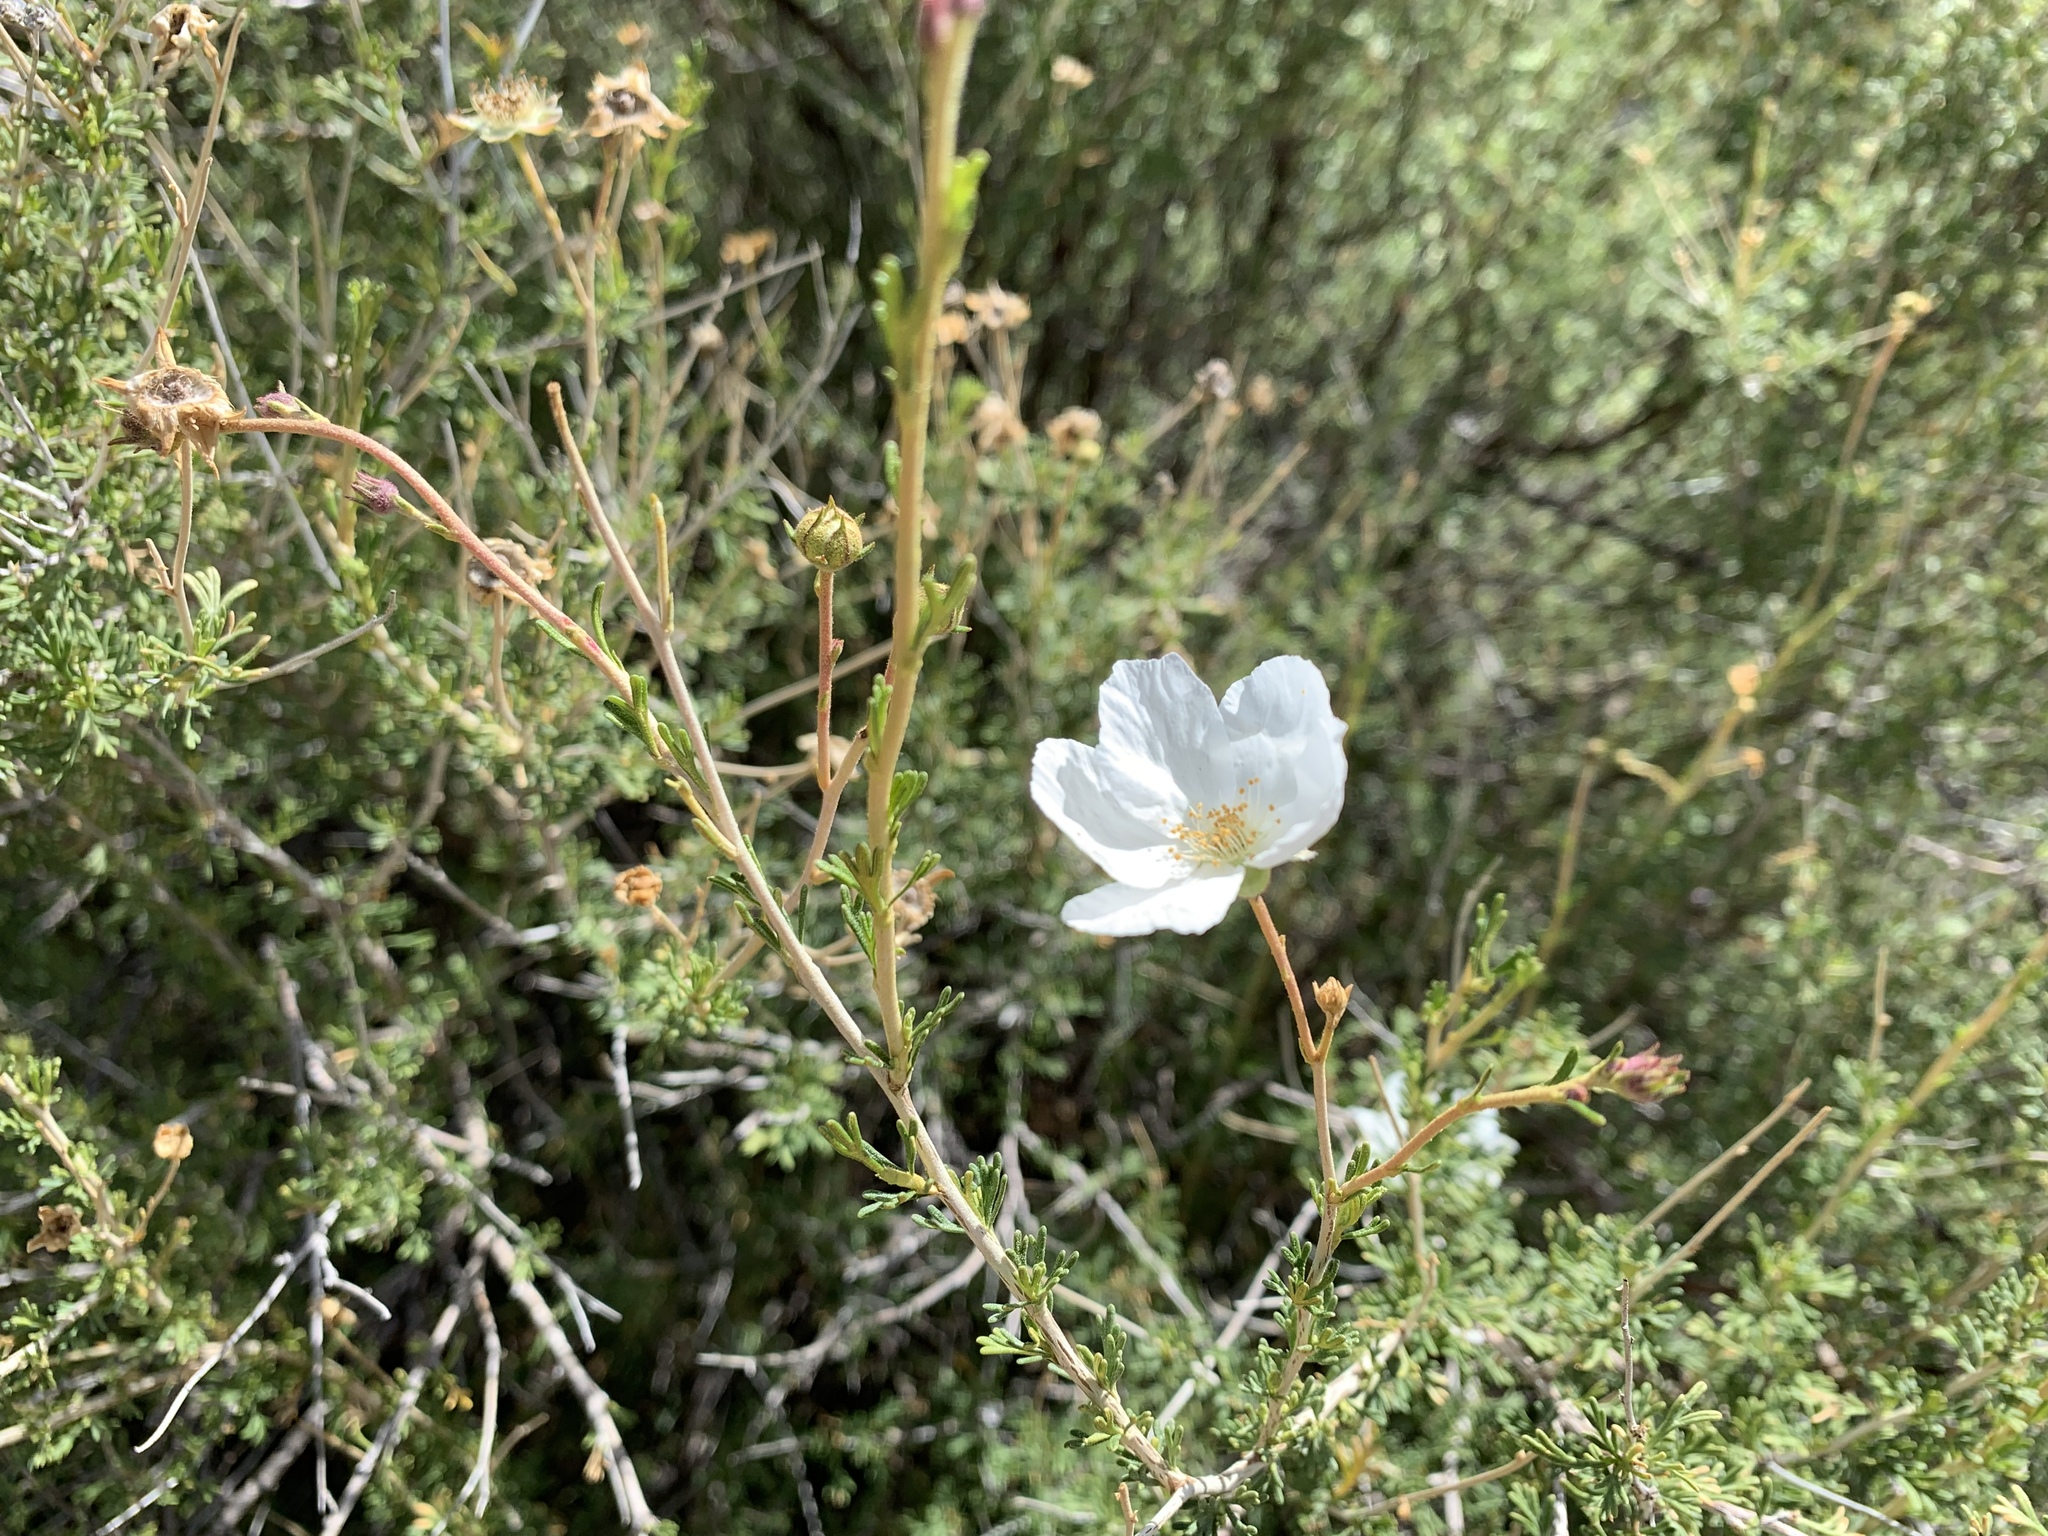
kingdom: Plantae
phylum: Tracheophyta
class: Magnoliopsida
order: Rosales
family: Rosaceae
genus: Fallugia
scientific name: Fallugia paradoxa
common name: Apache-plume
